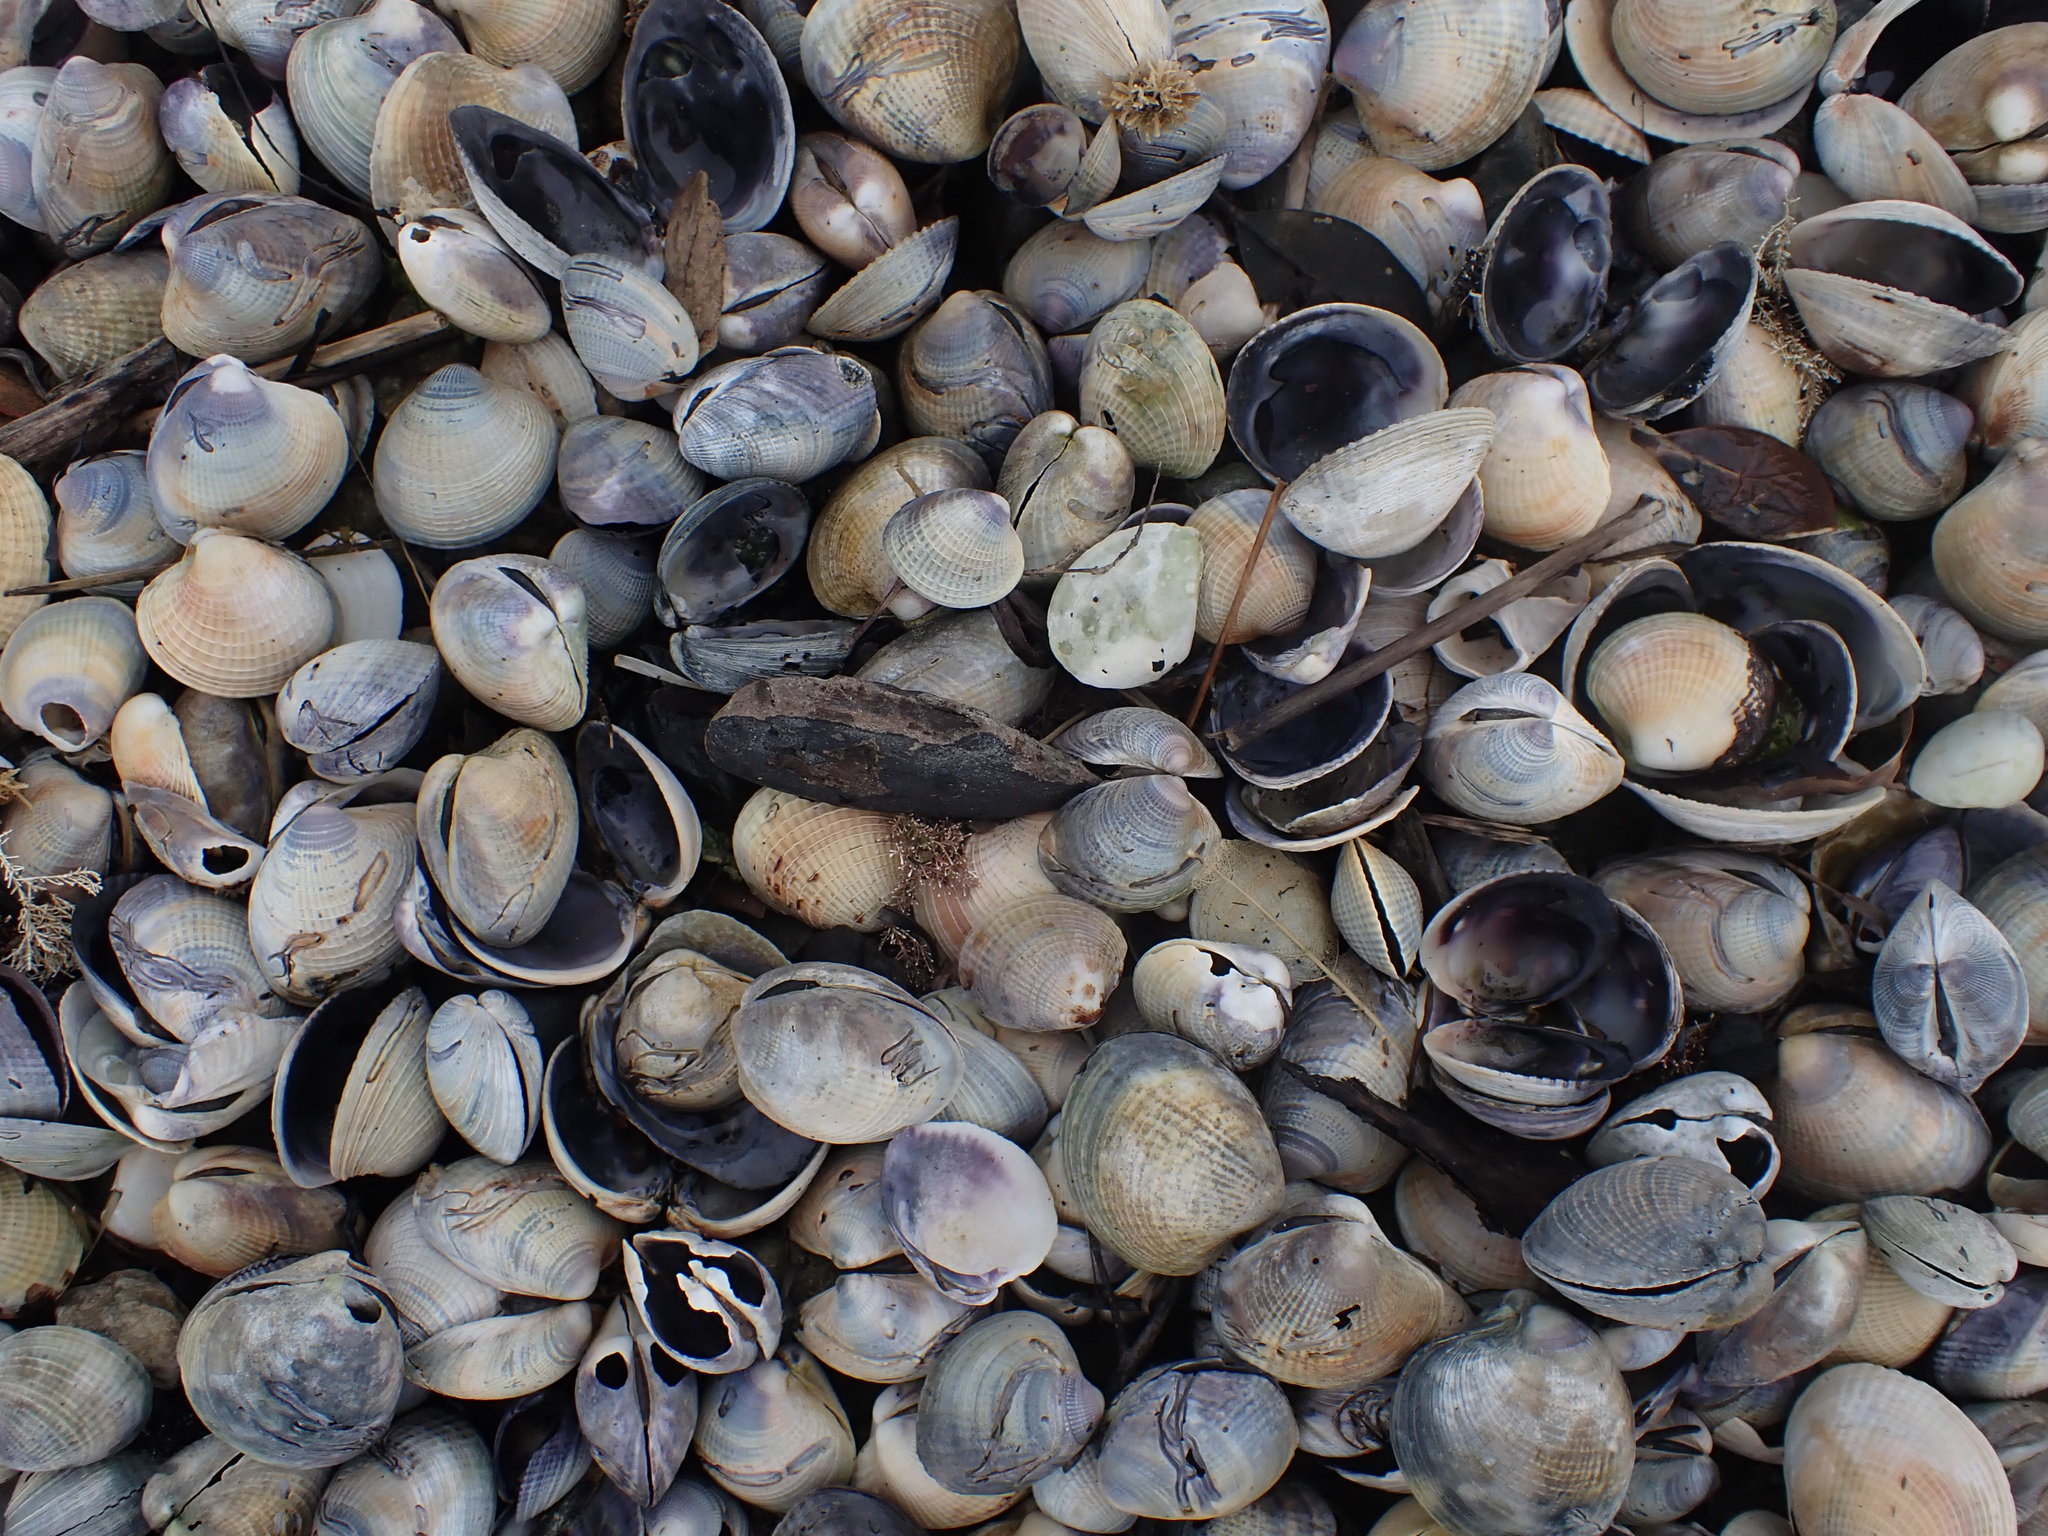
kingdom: Animalia
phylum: Mollusca
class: Bivalvia
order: Venerida
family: Veneridae
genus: Austrovenus
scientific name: Austrovenus stutchburyi
